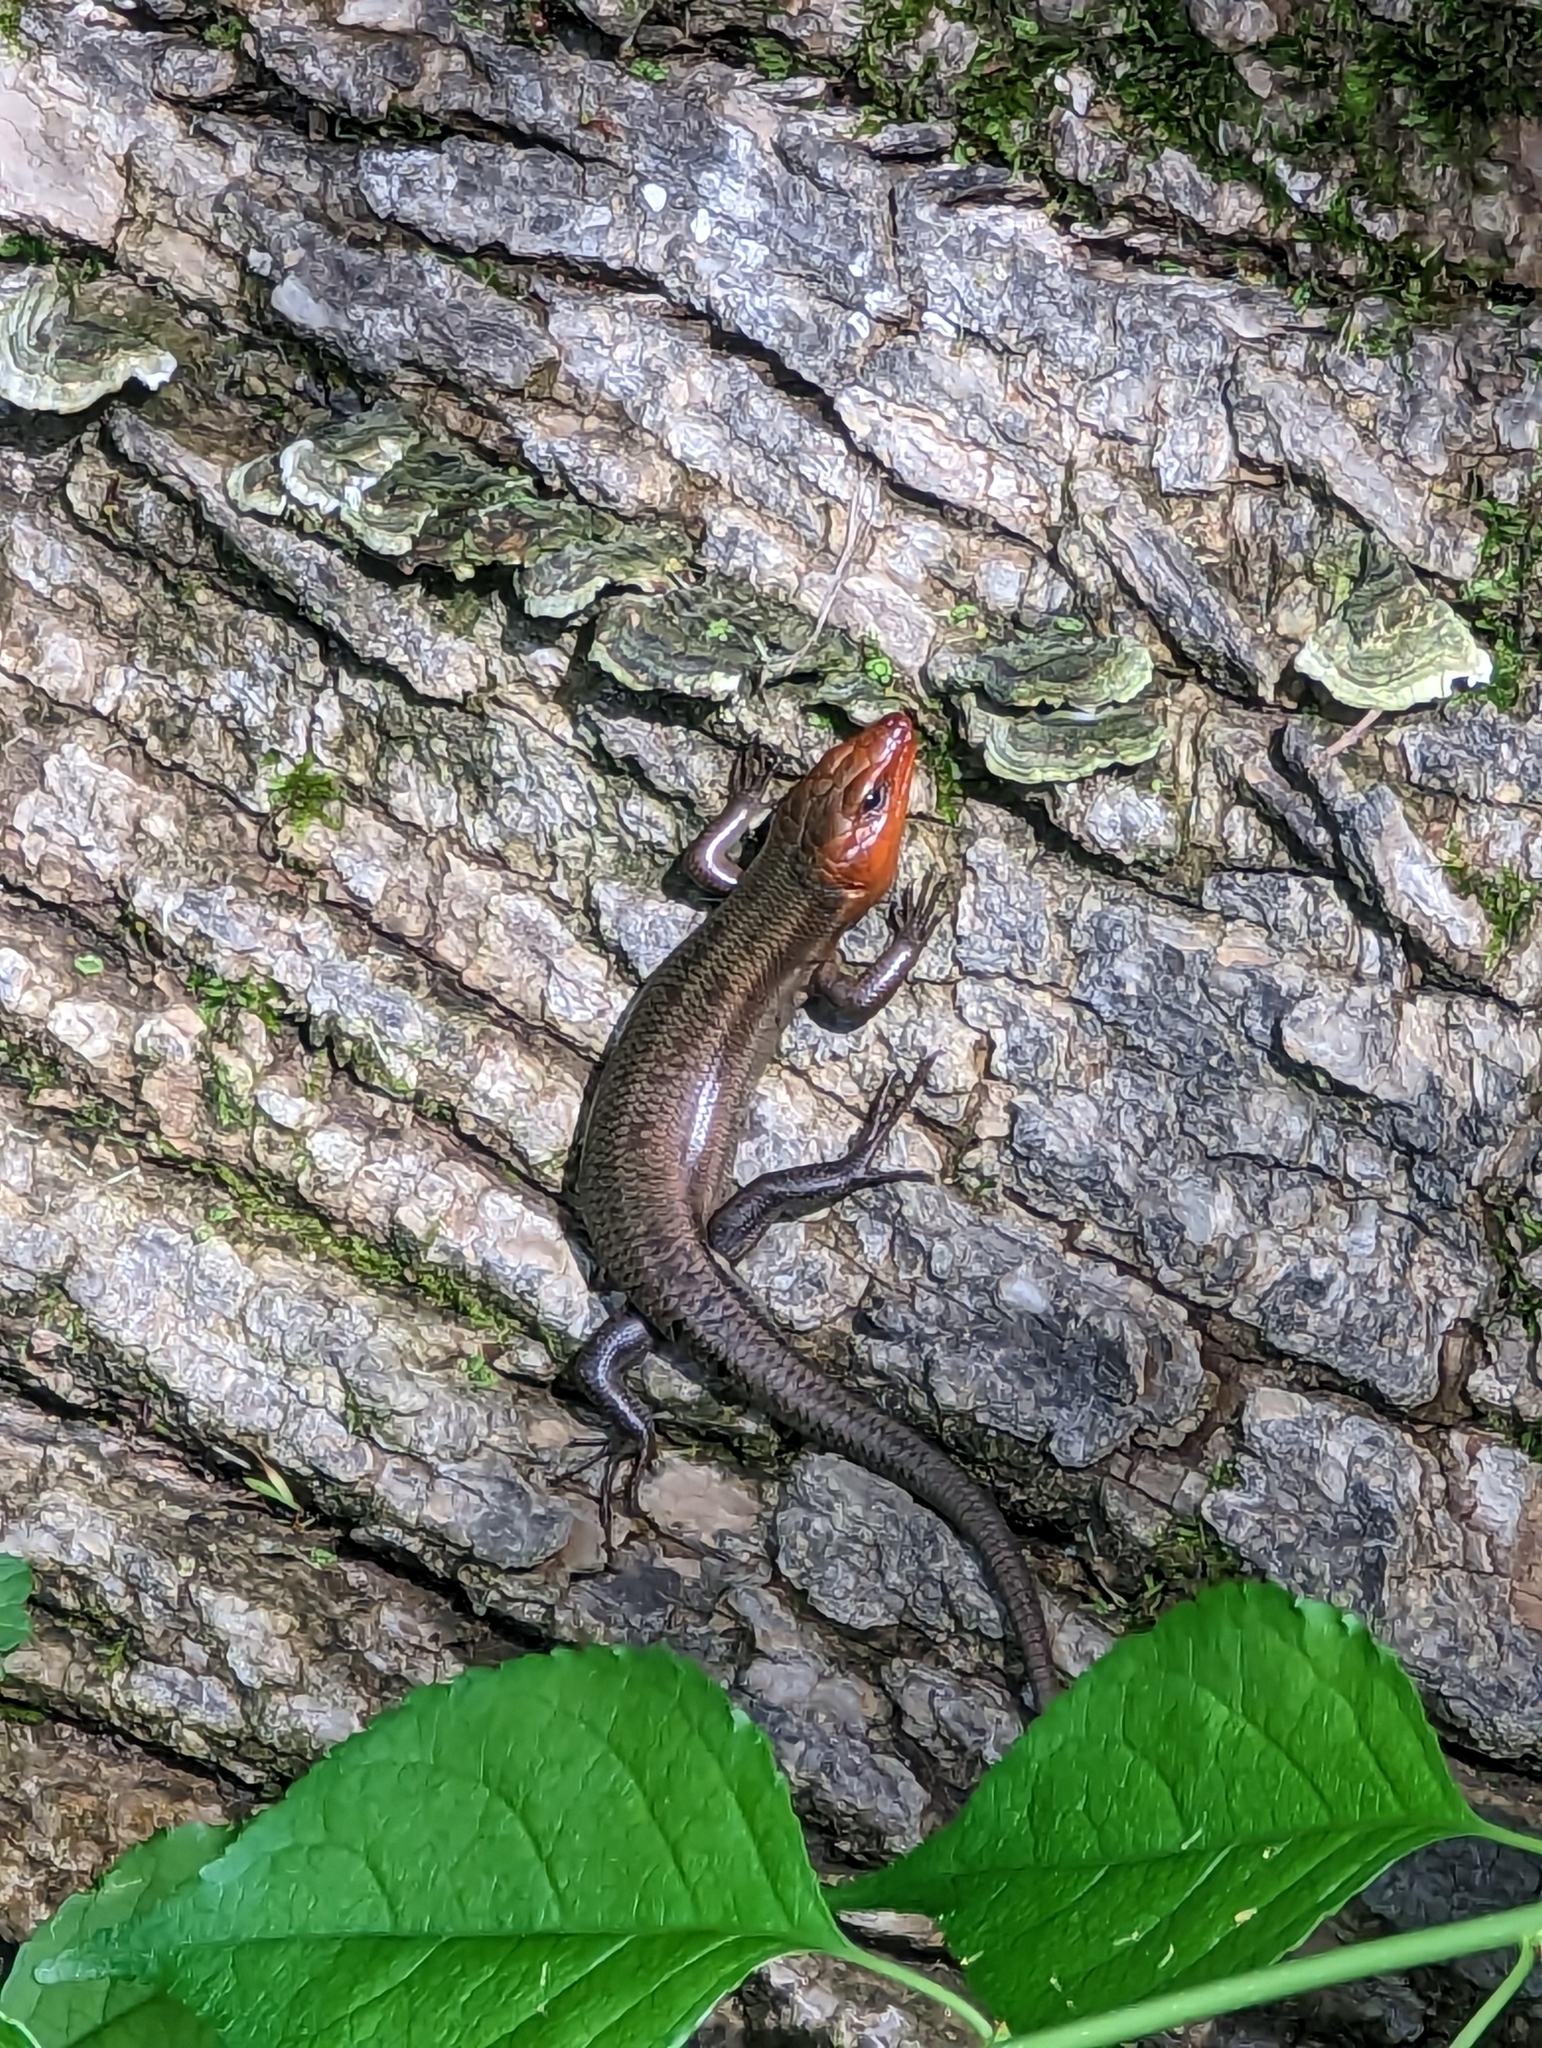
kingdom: Animalia
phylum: Chordata
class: Squamata
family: Scincidae
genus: Plestiodon
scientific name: Plestiodon fasciatus
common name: Five-lined skink
